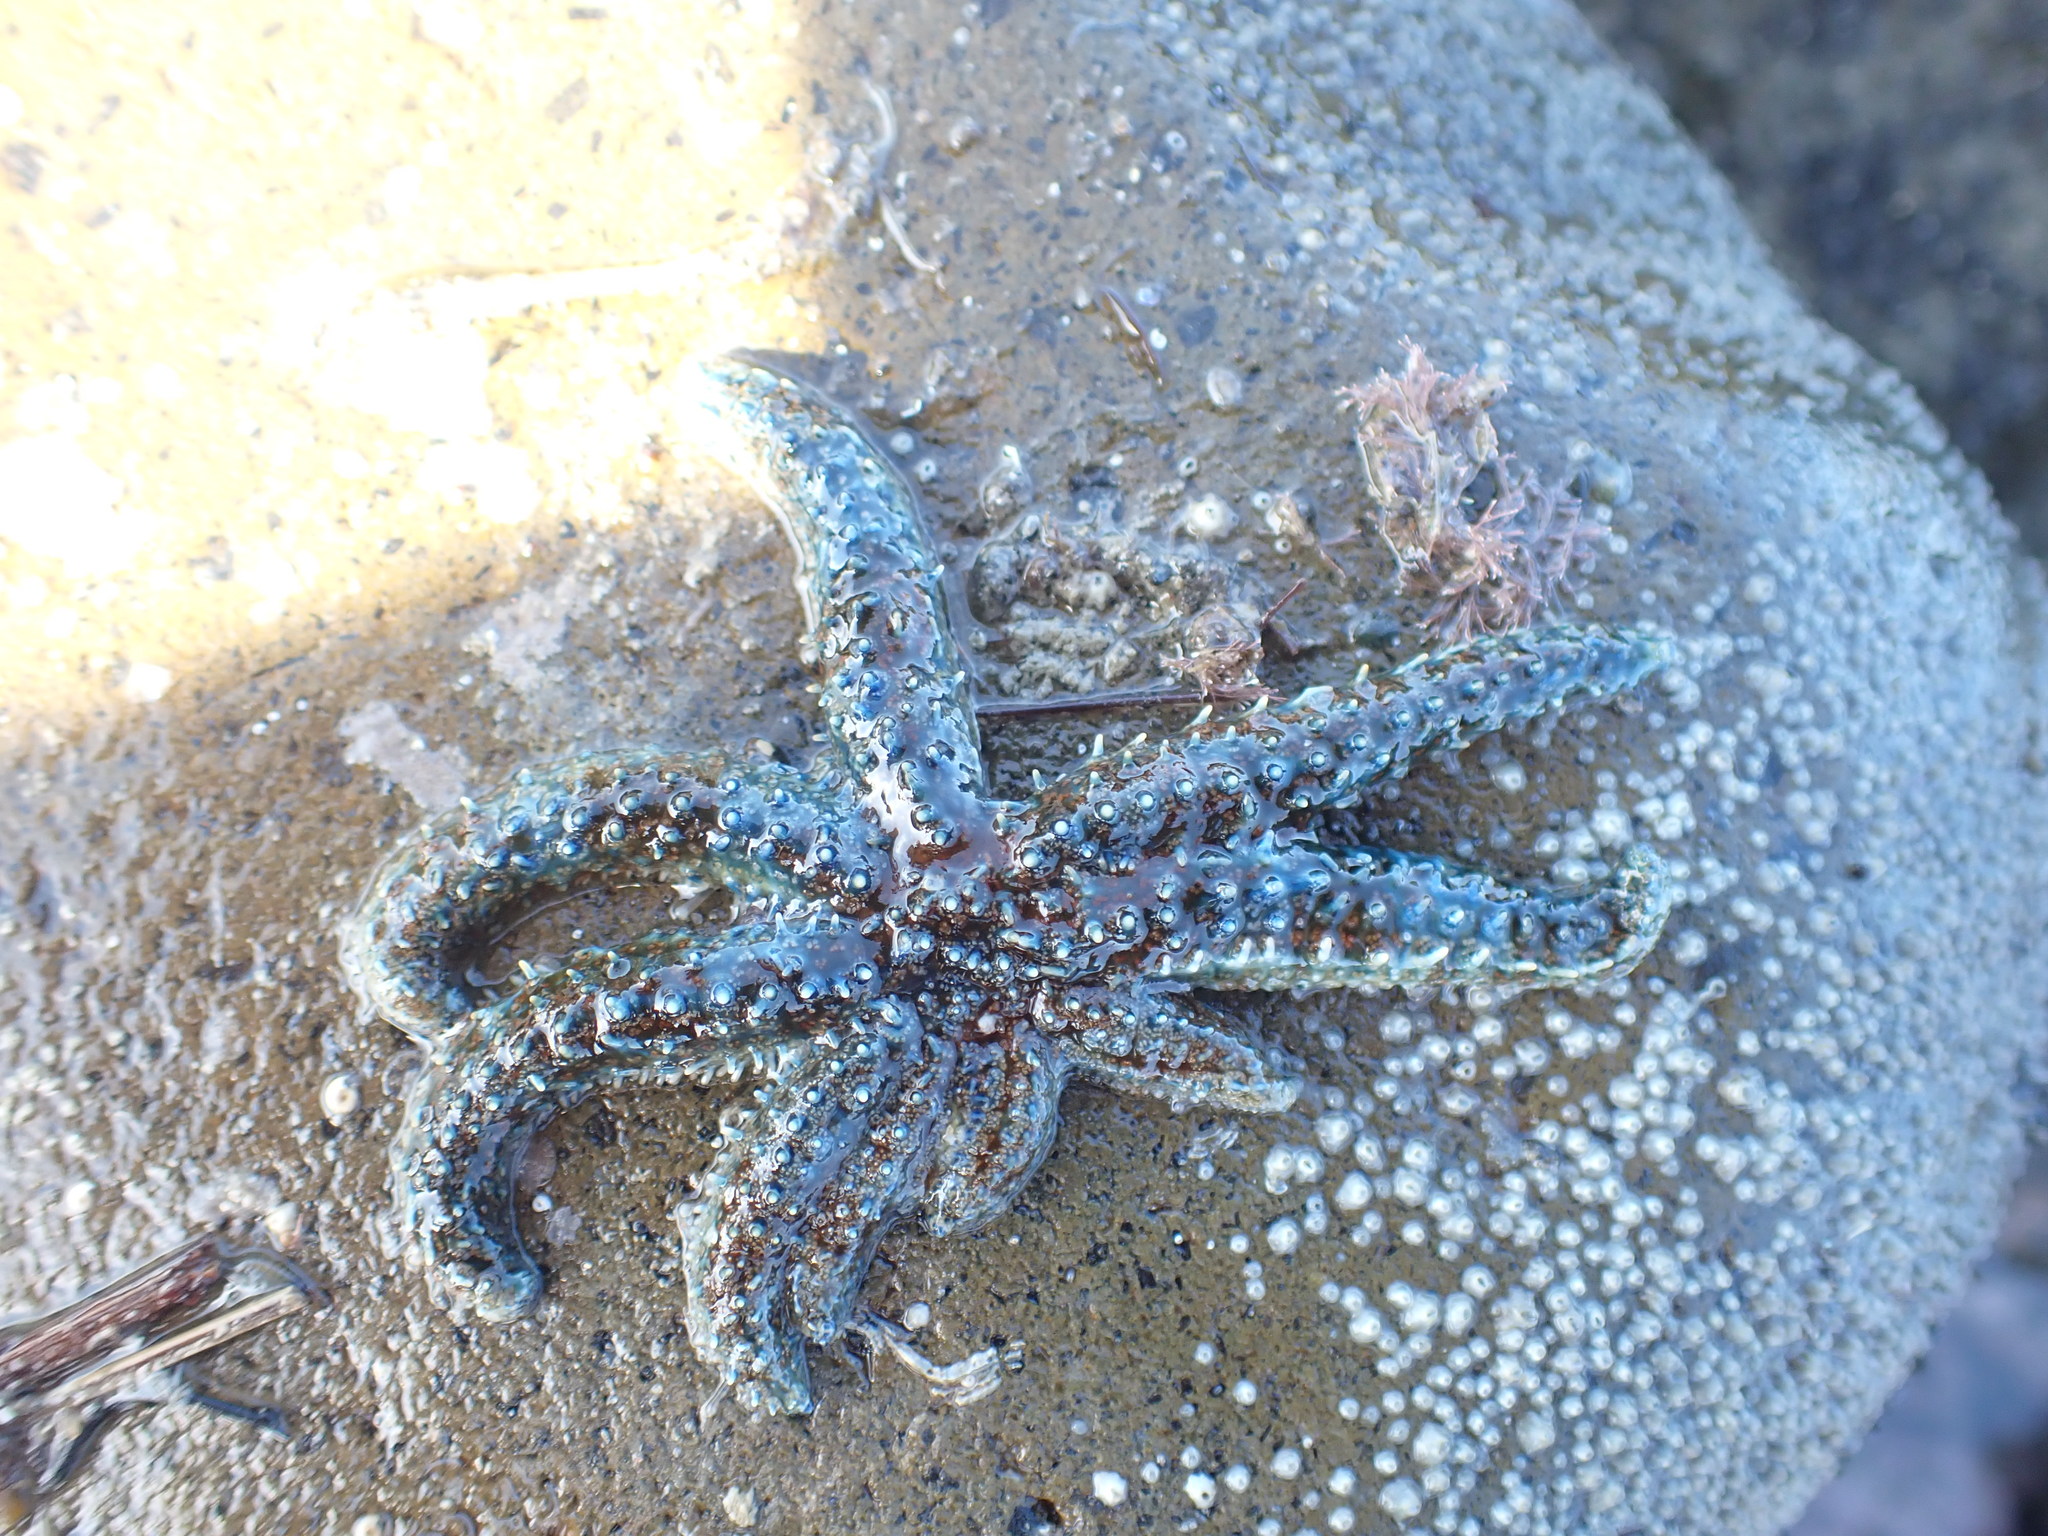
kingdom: Animalia
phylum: Echinodermata
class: Asteroidea
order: Forcipulatida
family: Asteriidae
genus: Coscinasterias
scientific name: Coscinasterias muricata
